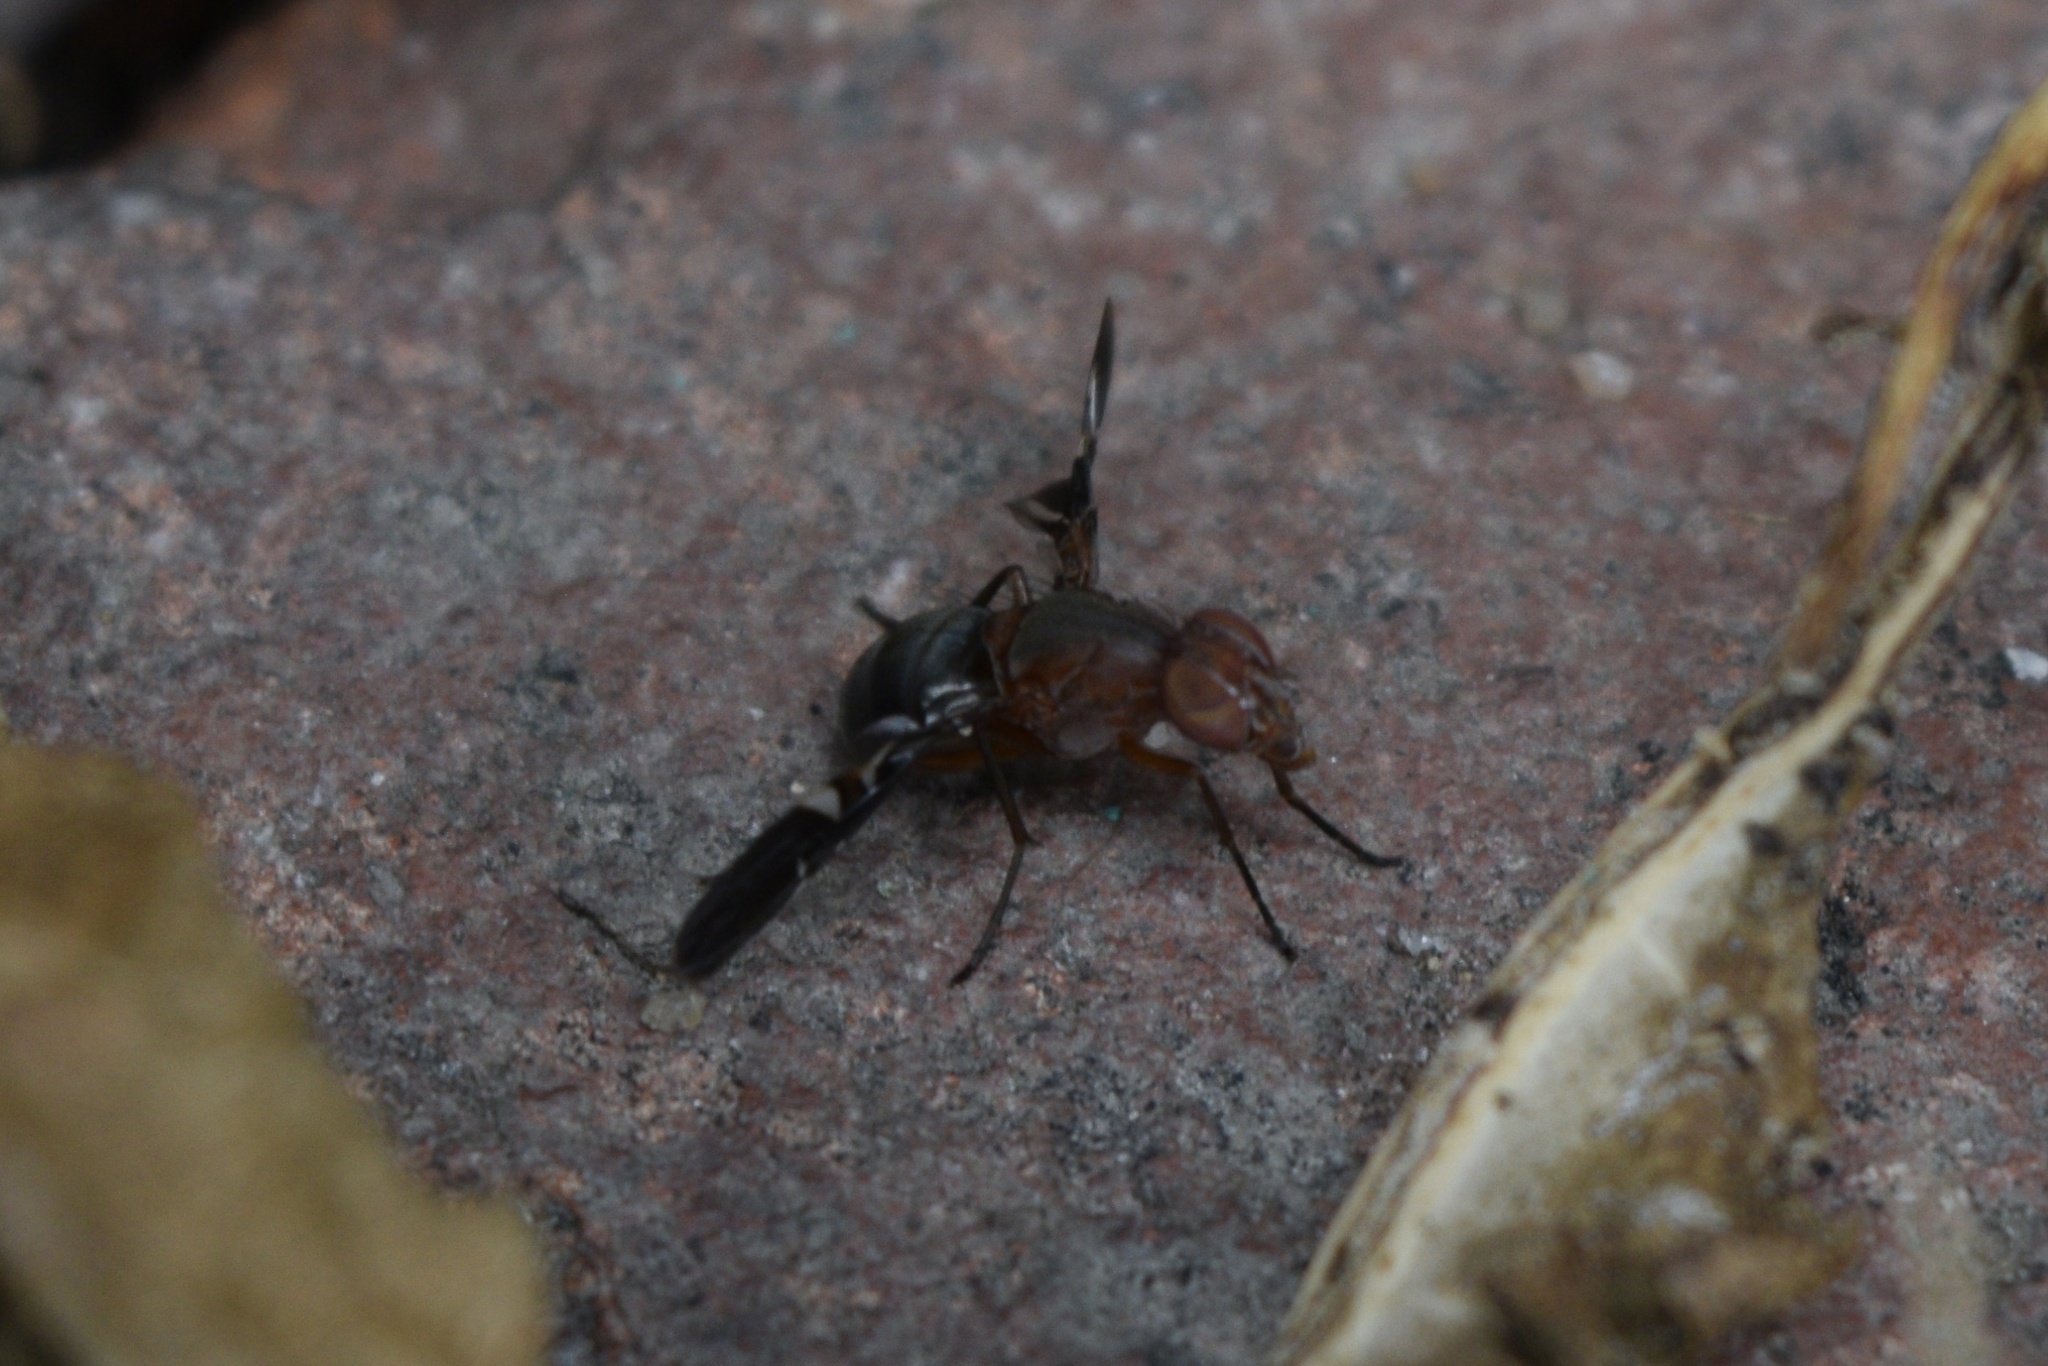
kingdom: Animalia
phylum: Arthropoda
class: Insecta
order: Diptera
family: Ulidiidae
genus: Delphinia
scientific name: Delphinia picta
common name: Common picture-winged fly
